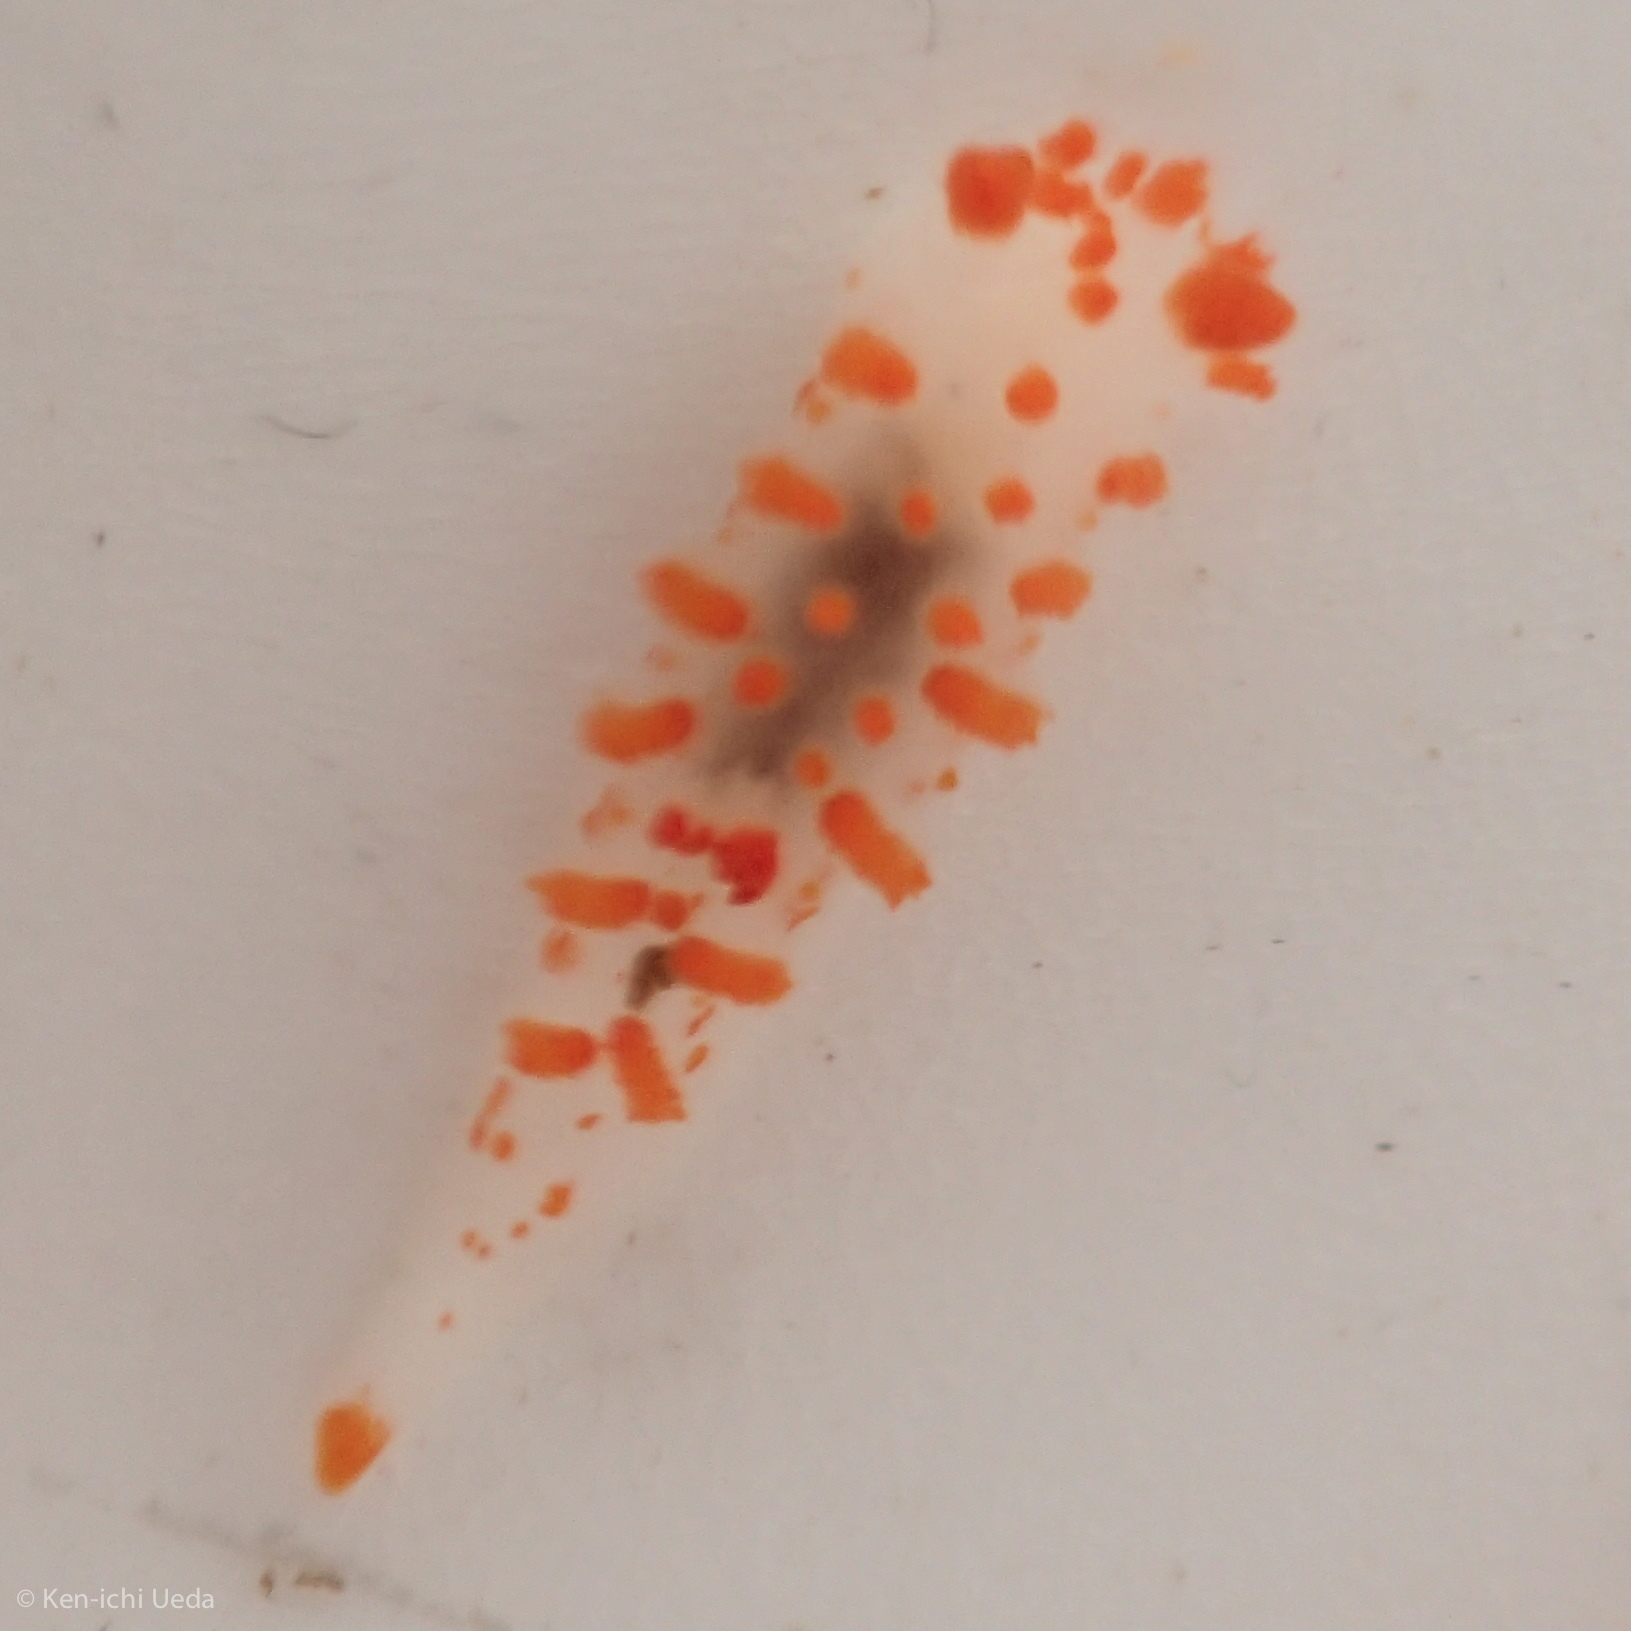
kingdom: Animalia
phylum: Mollusca
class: Gastropoda
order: Nudibranchia
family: Polyceridae
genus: Triopha
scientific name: Triopha catalinae
